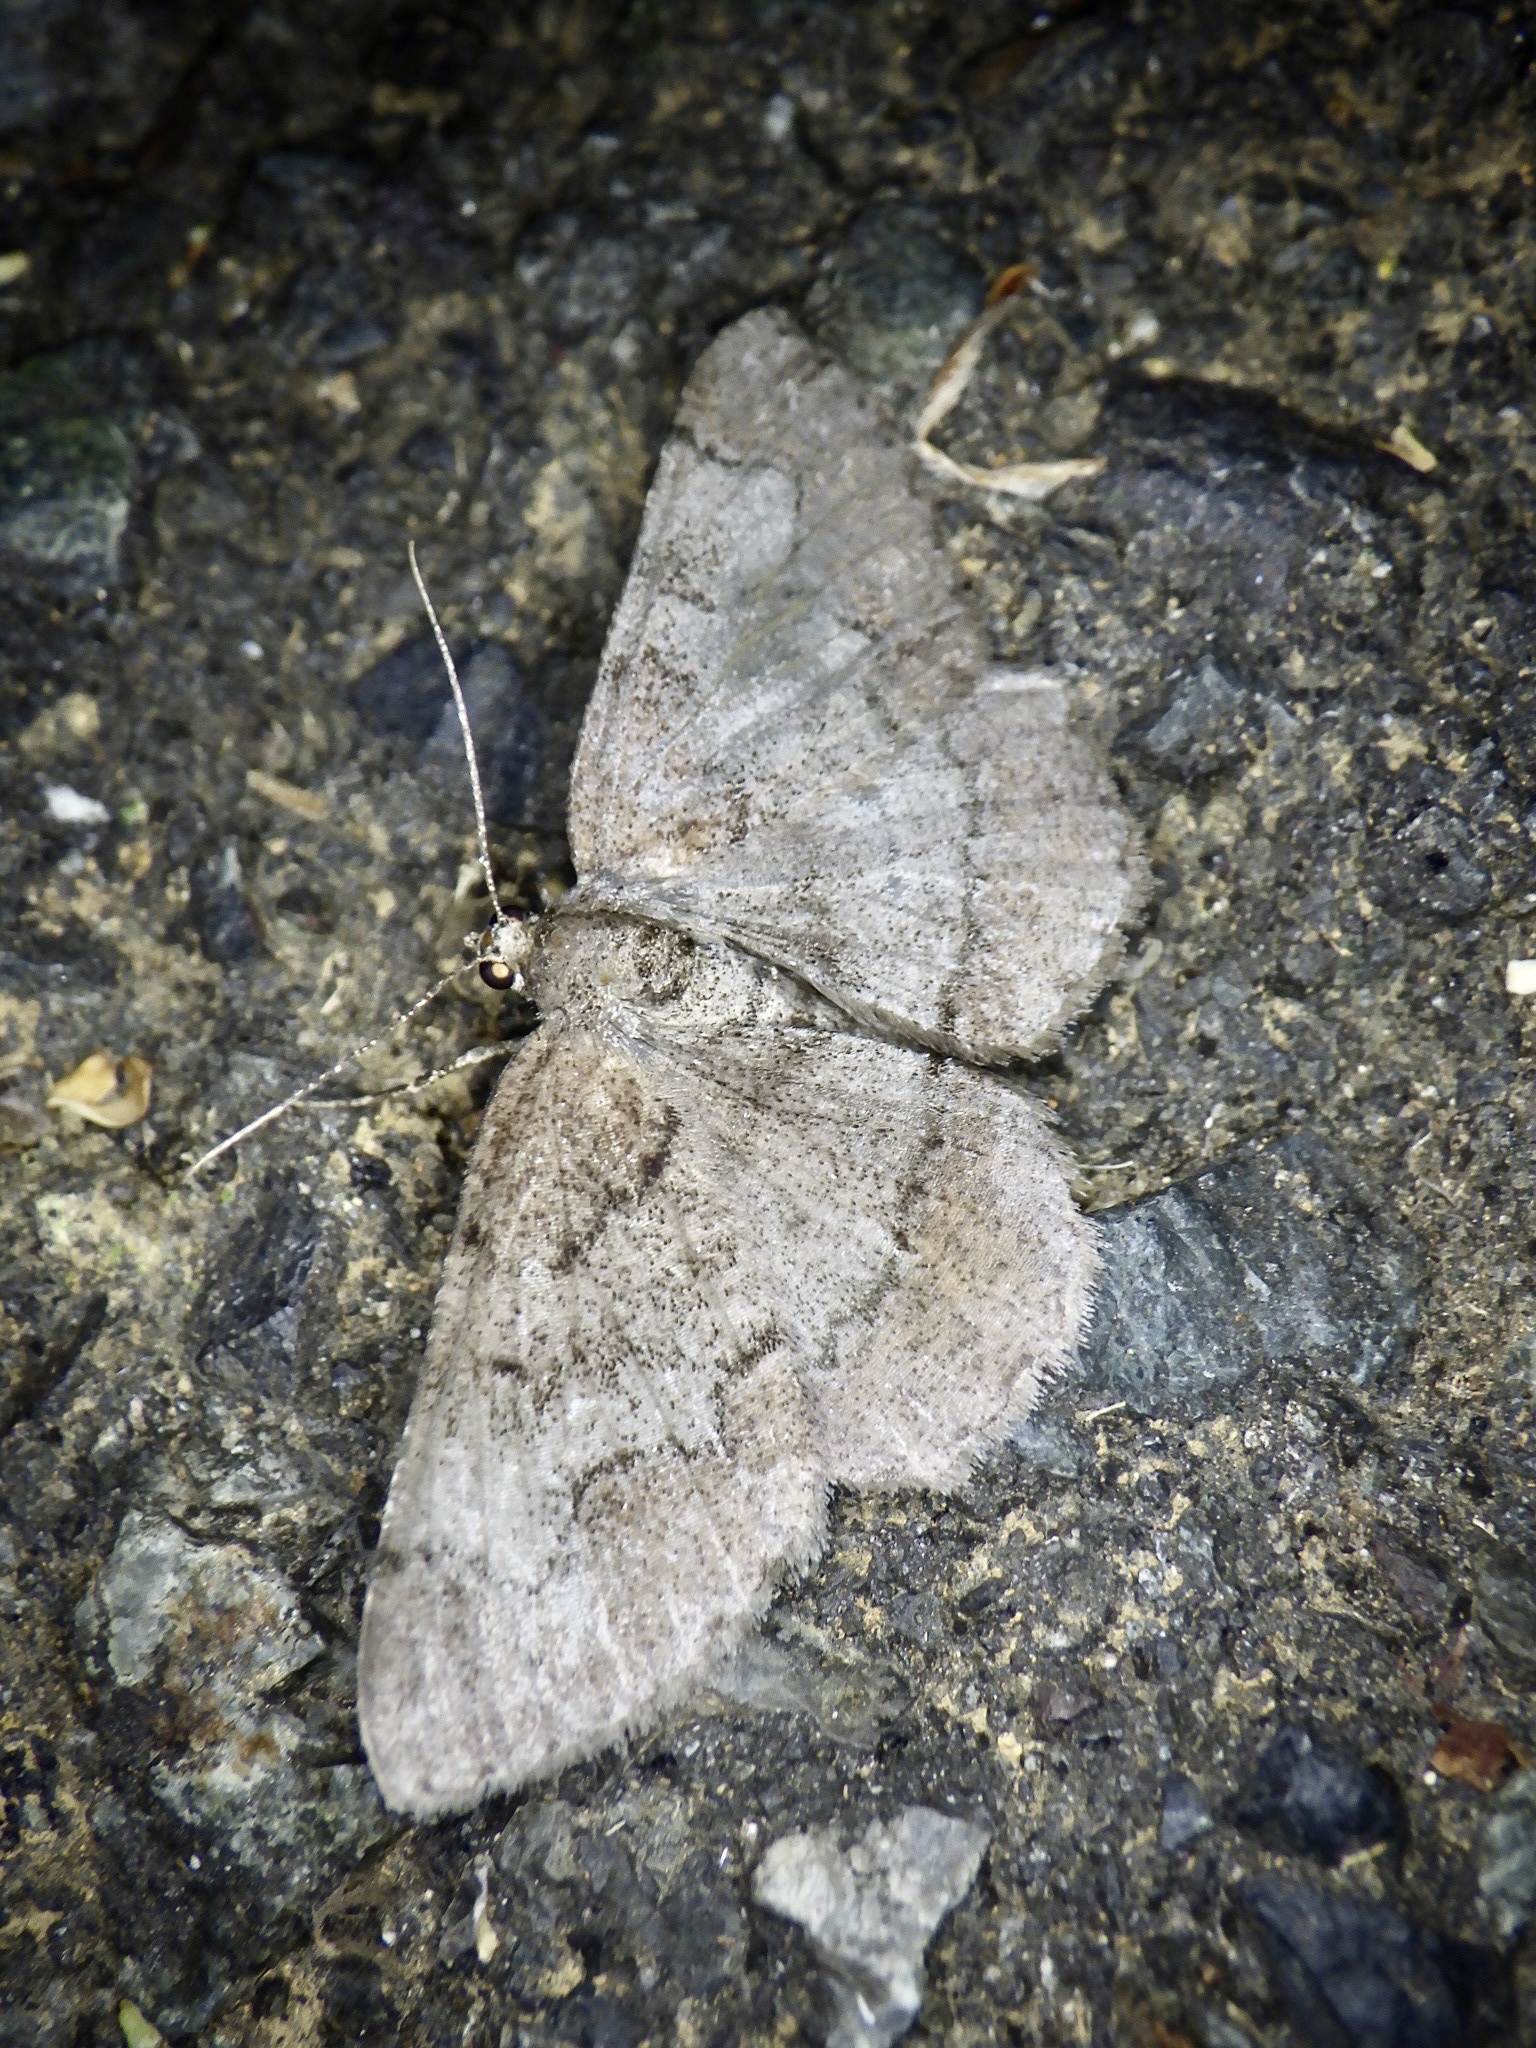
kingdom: Animalia
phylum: Arthropoda
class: Insecta
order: Lepidoptera
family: Geometridae
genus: Rikiosatoa
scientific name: Rikiosatoa grisea
